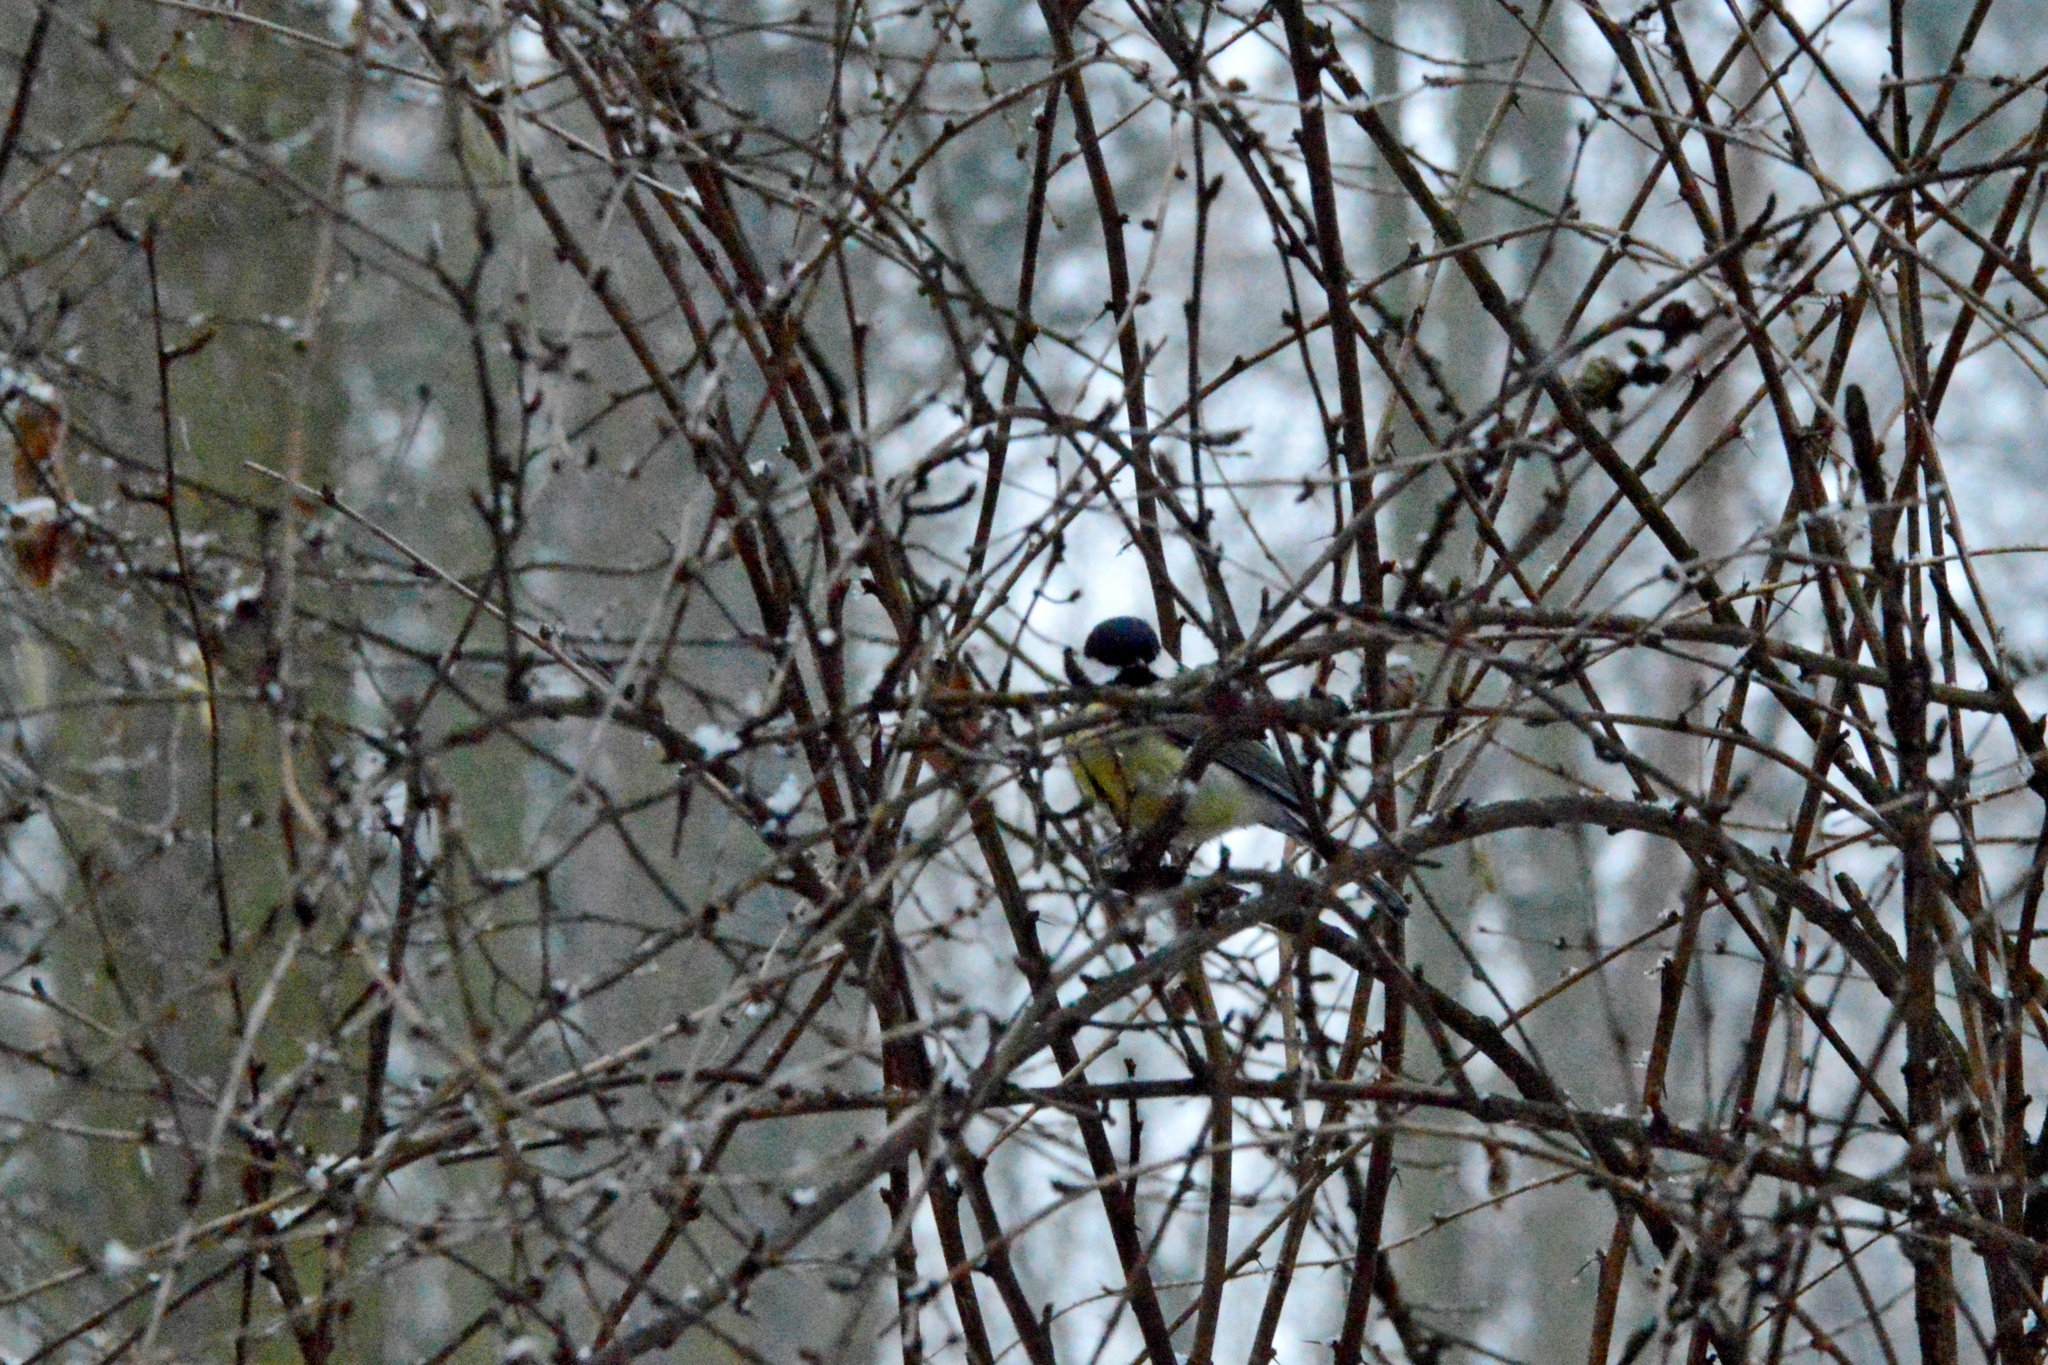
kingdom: Animalia
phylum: Chordata
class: Aves
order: Passeriformes
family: Paridae
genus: Parus
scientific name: Parus major
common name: Great tit
